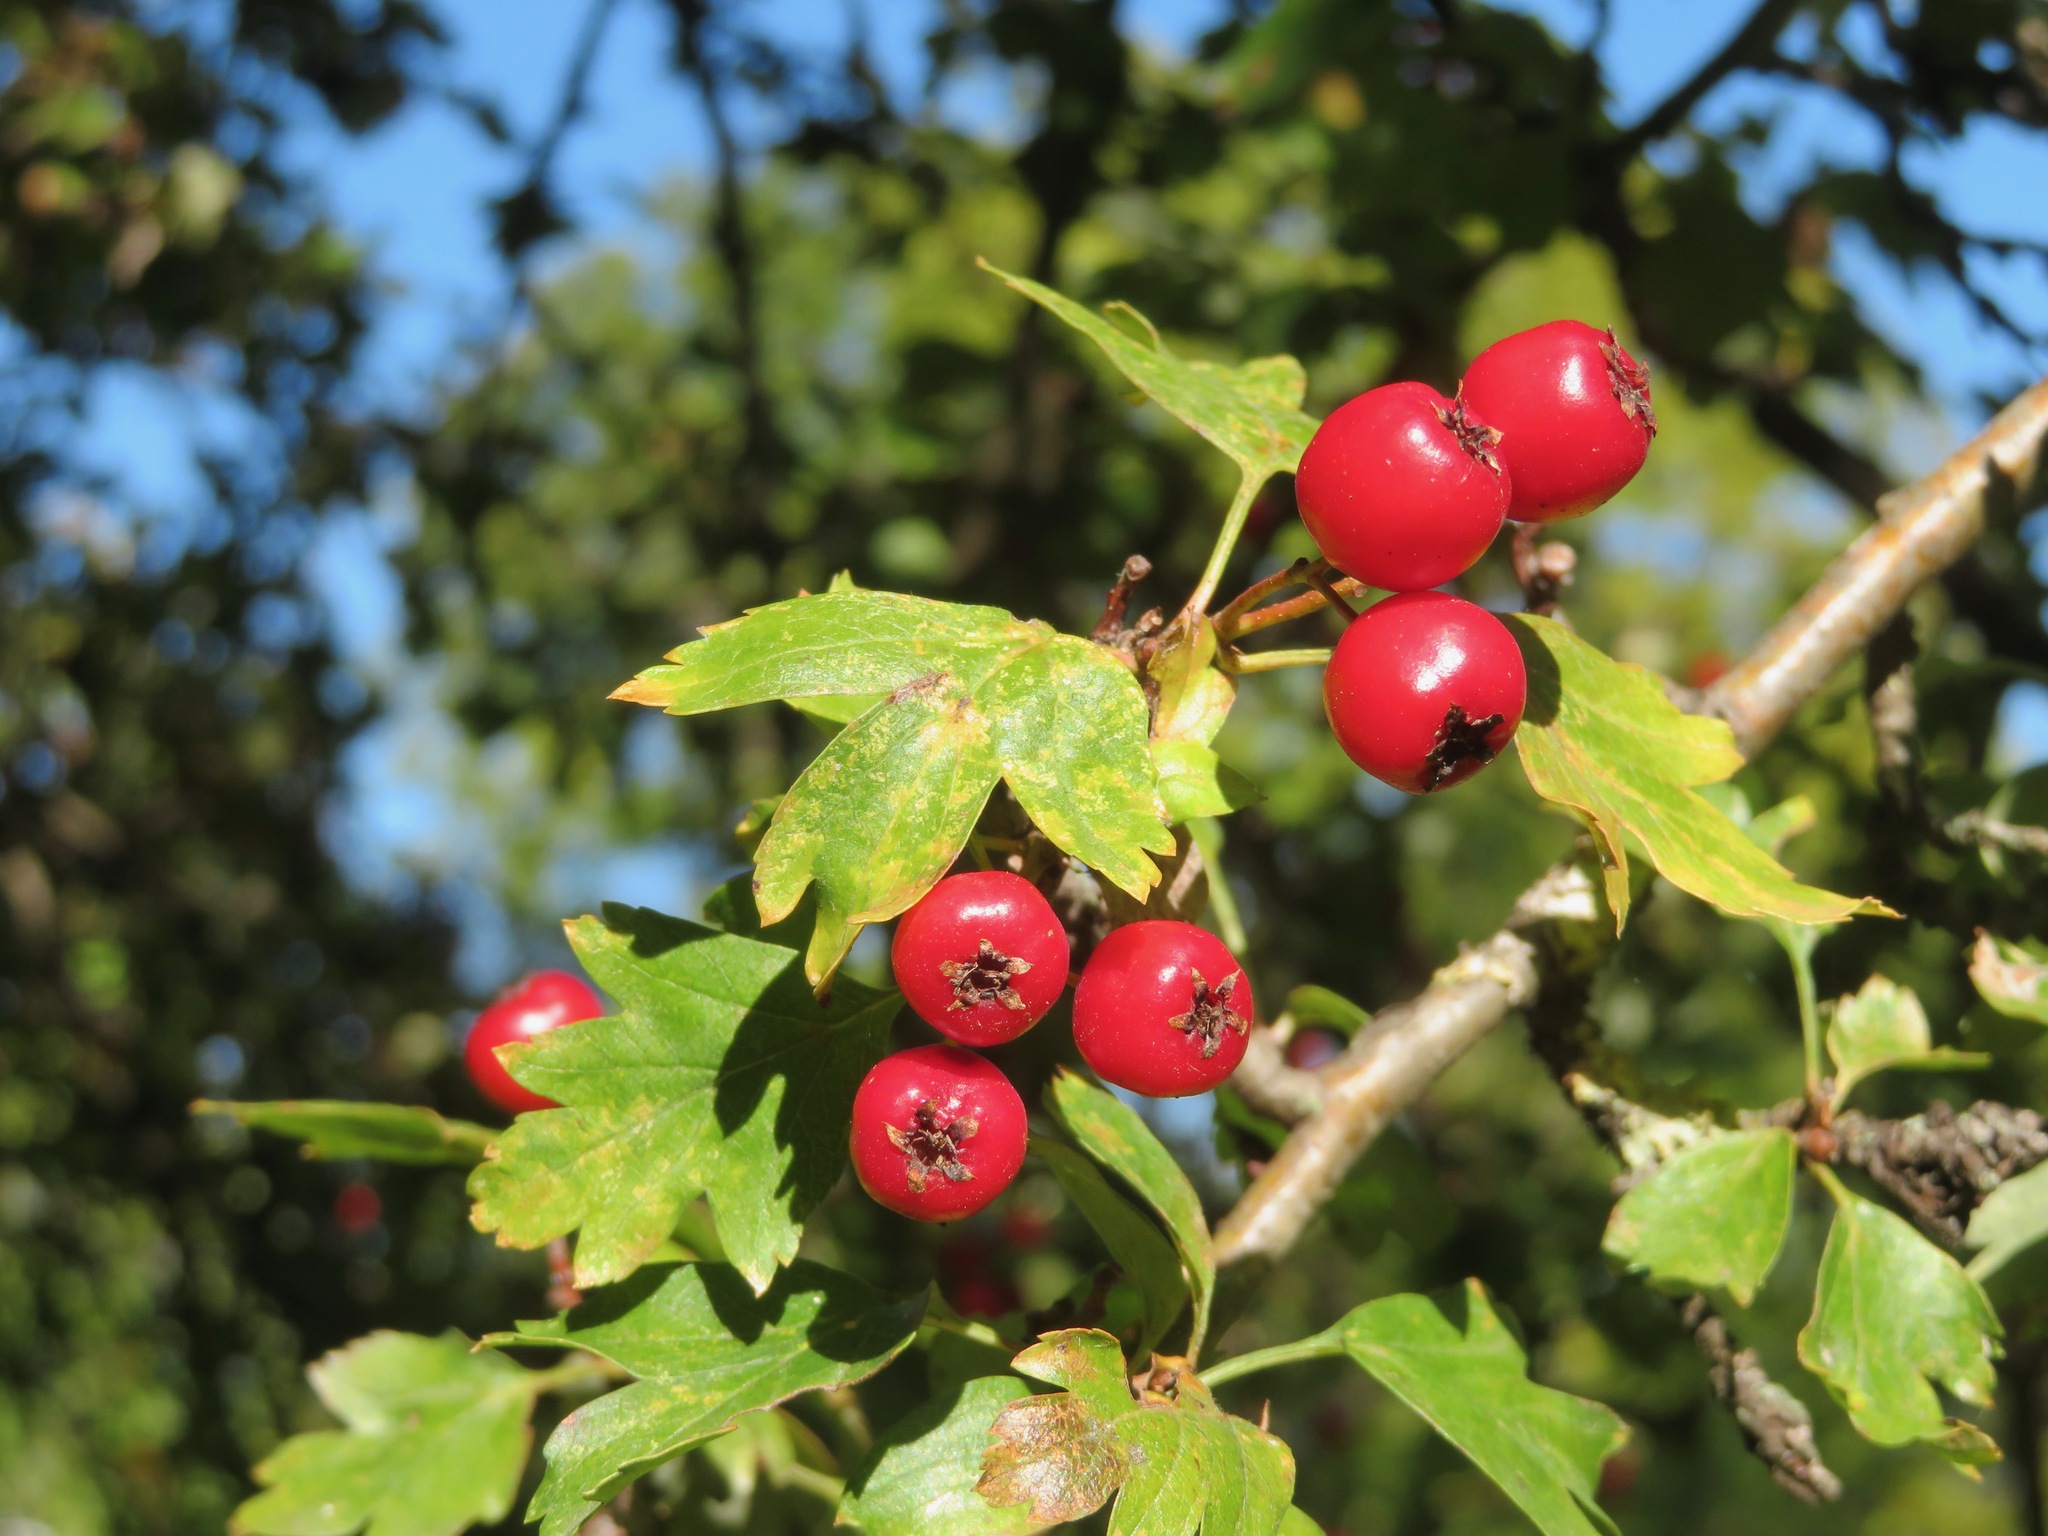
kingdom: Plantae
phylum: Tracheophyta
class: Magnoliopsida
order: Rosales
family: Rosaceae
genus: Crataegus
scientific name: Crataegus monogyna
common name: Hawthorn
